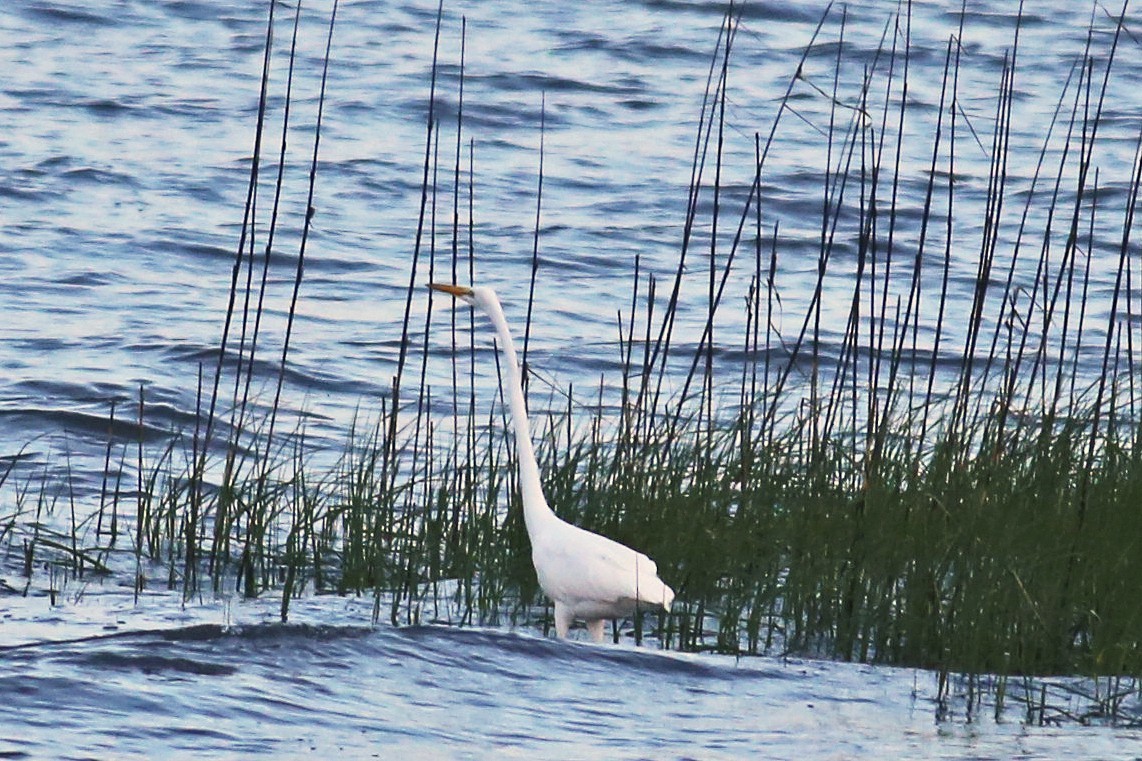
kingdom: Animalia
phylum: Chordata
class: Aves
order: Pelecaniformes
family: Ardeidae
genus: Ardea
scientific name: Ardea alba
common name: Great egret
